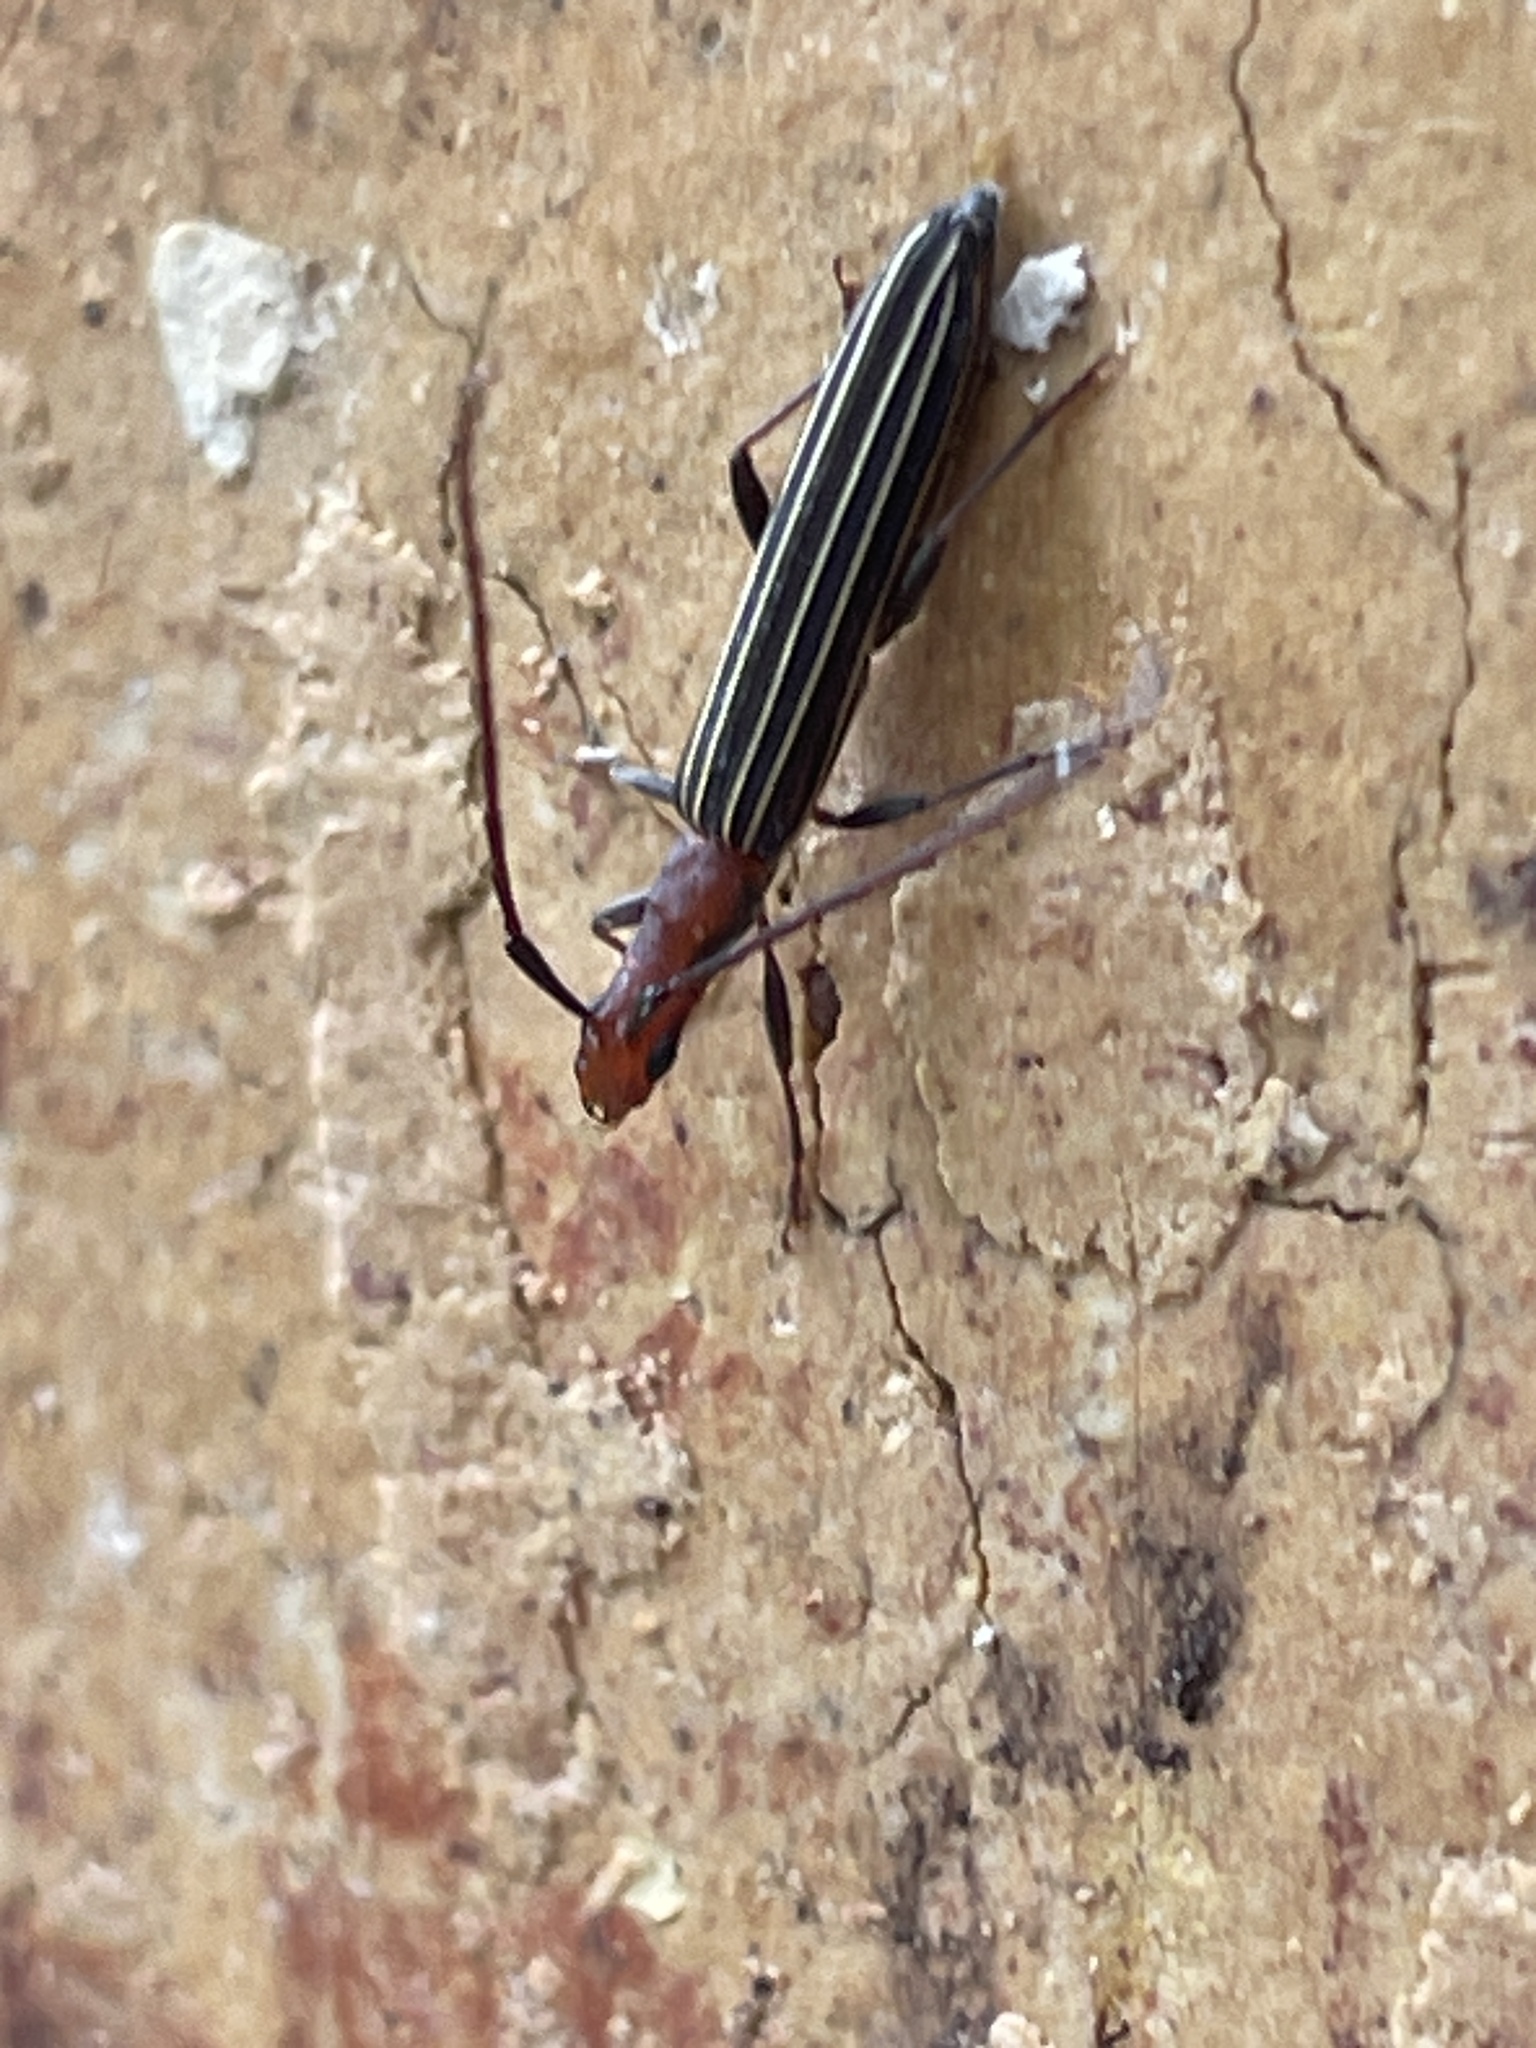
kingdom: Animalia
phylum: Arthropoda
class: Insecta
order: Coleoptera
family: Cerambycidae
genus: Syllitus
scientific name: Syllitus rectus
